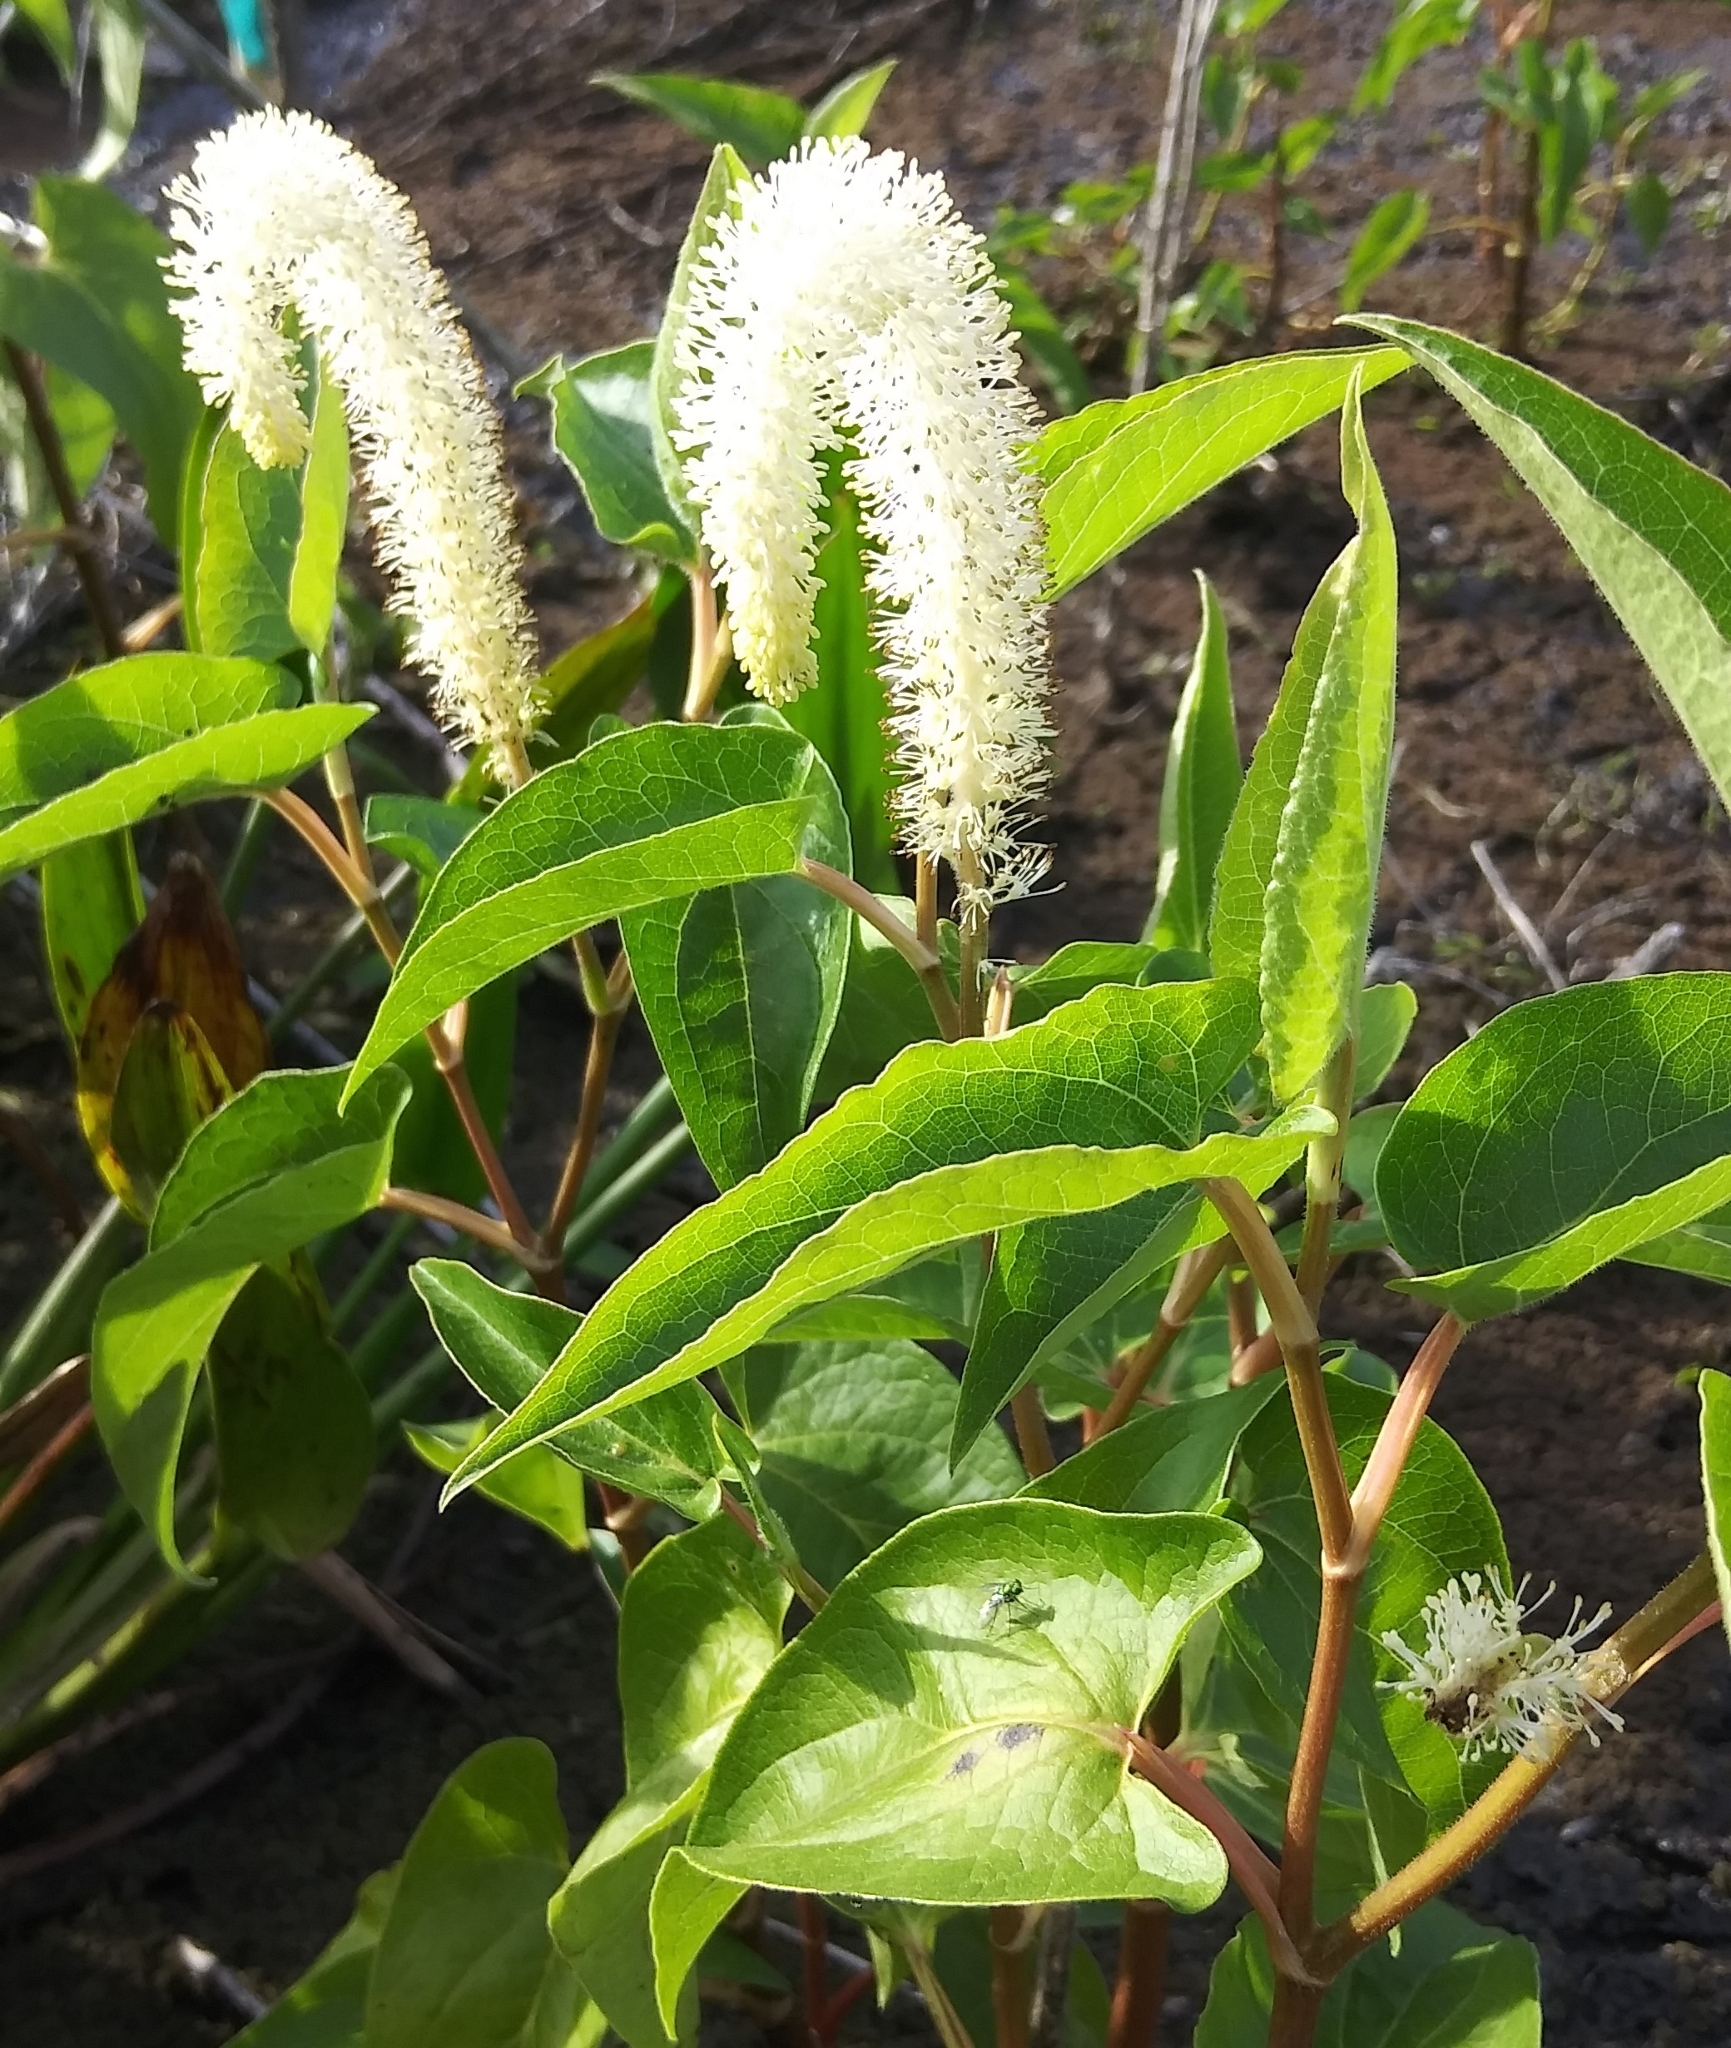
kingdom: Plantae
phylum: Tracheophyta
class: Magnoliopsida
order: Piperales
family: Saururaceae
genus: Saururus
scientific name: Saururus cernuus
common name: Lizard's-tail
